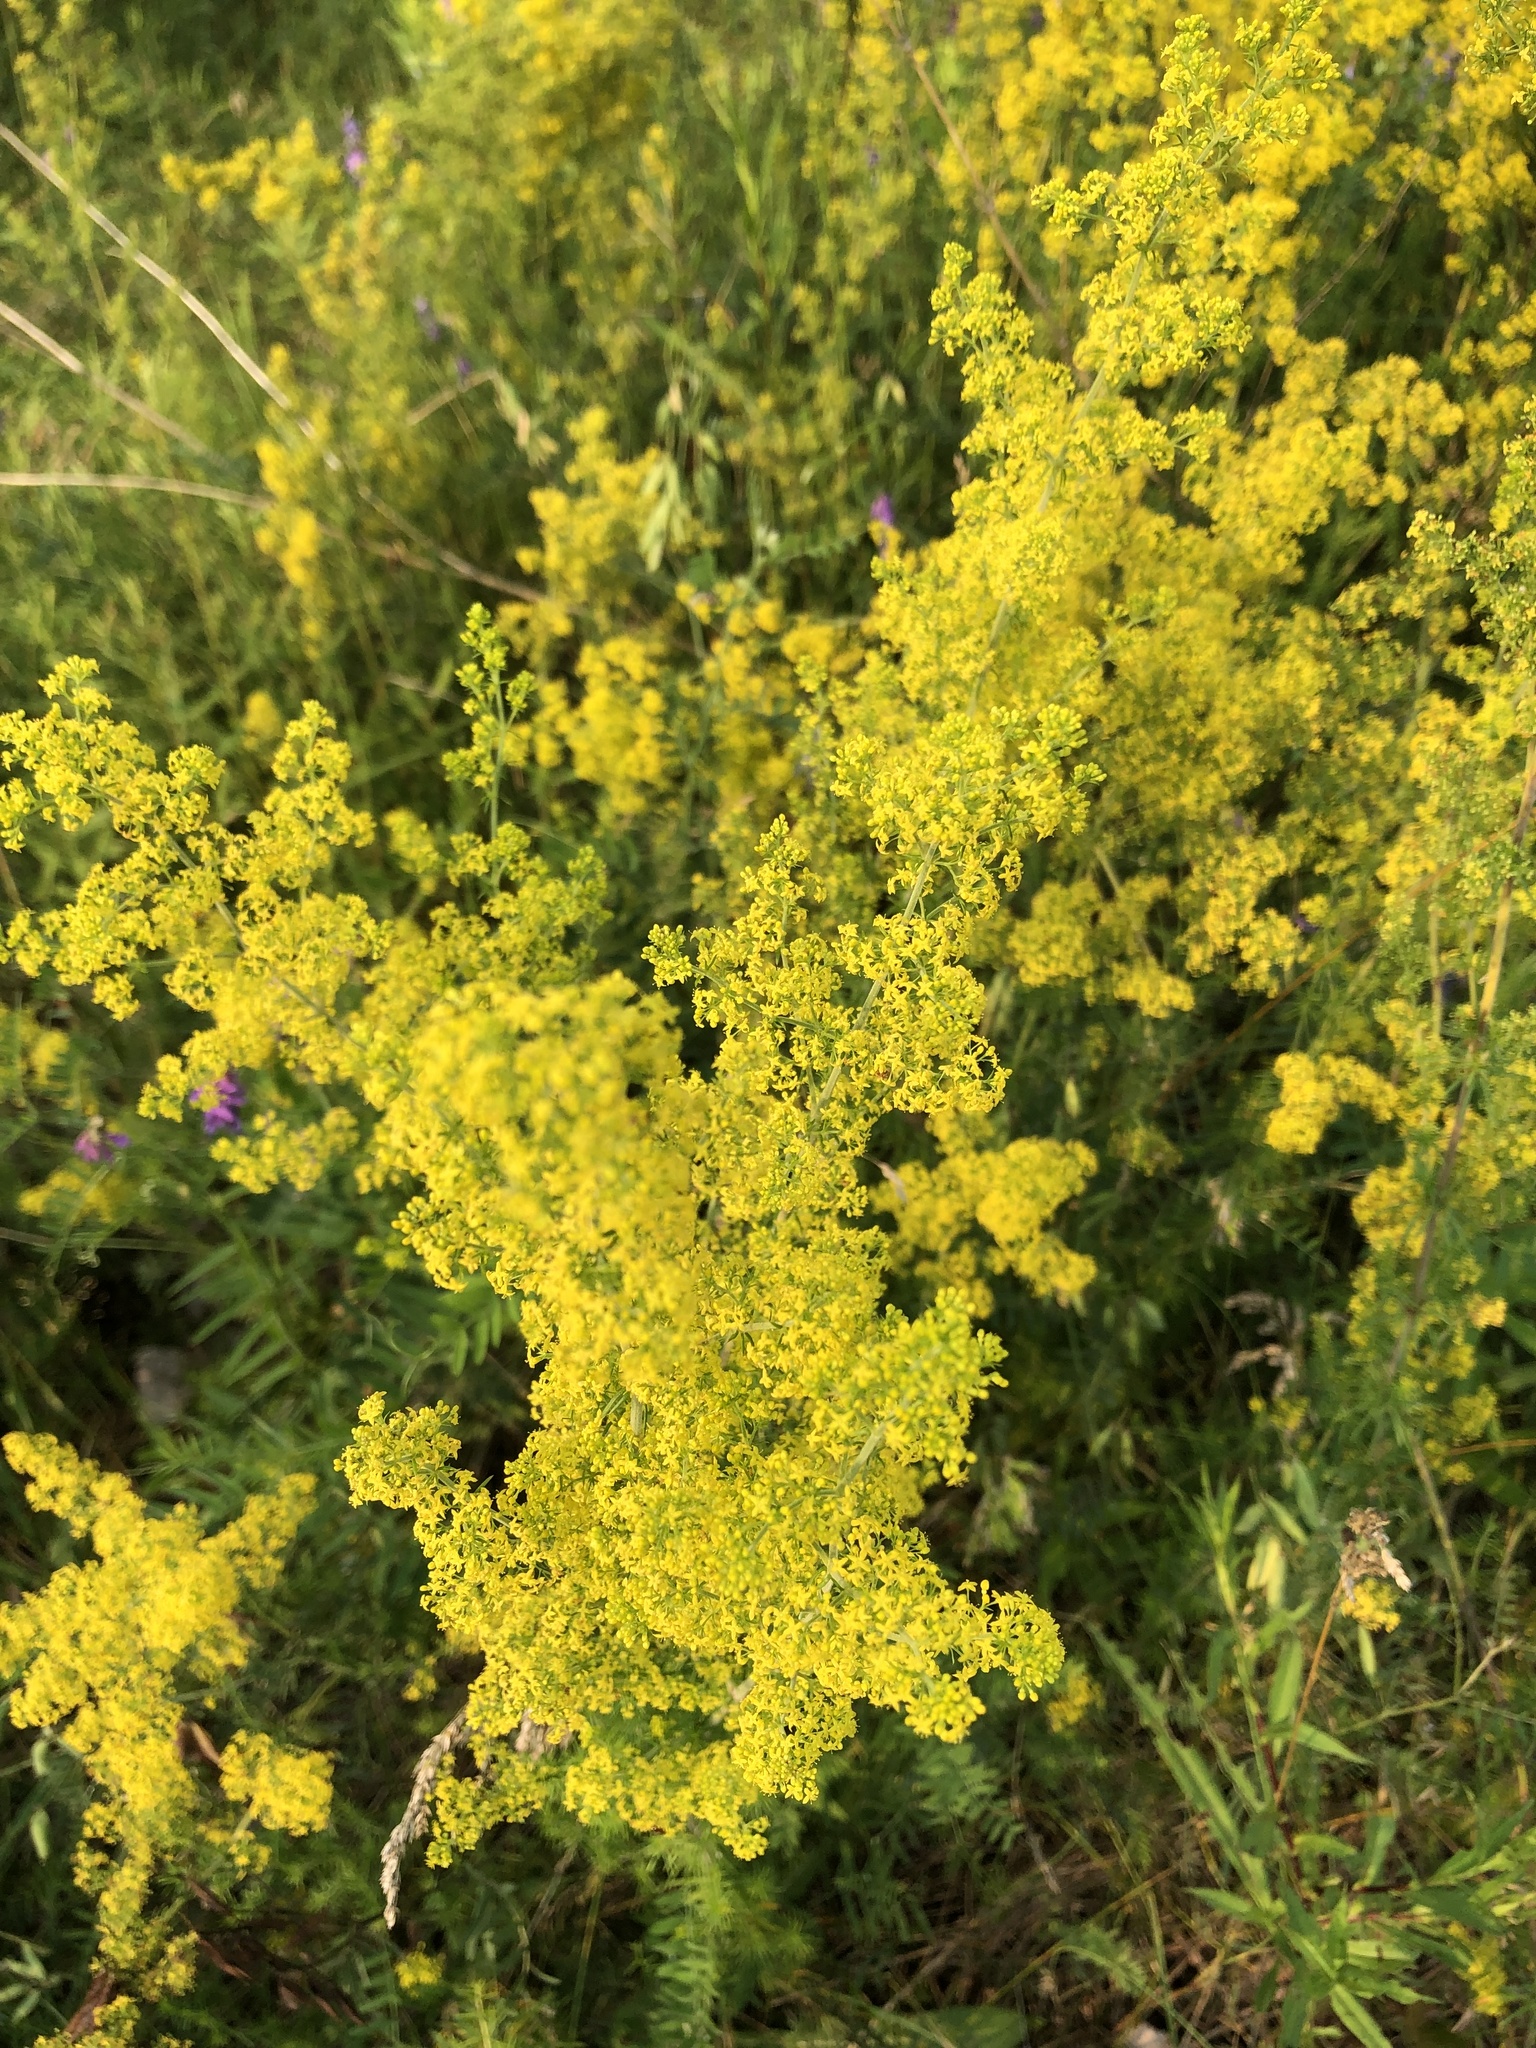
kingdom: Plantae
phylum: Tracheophyta
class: Magnoliopsida
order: Gentianales
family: Rubiaceae
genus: Galium
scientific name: Galium verum
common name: Lady's bedstraw
